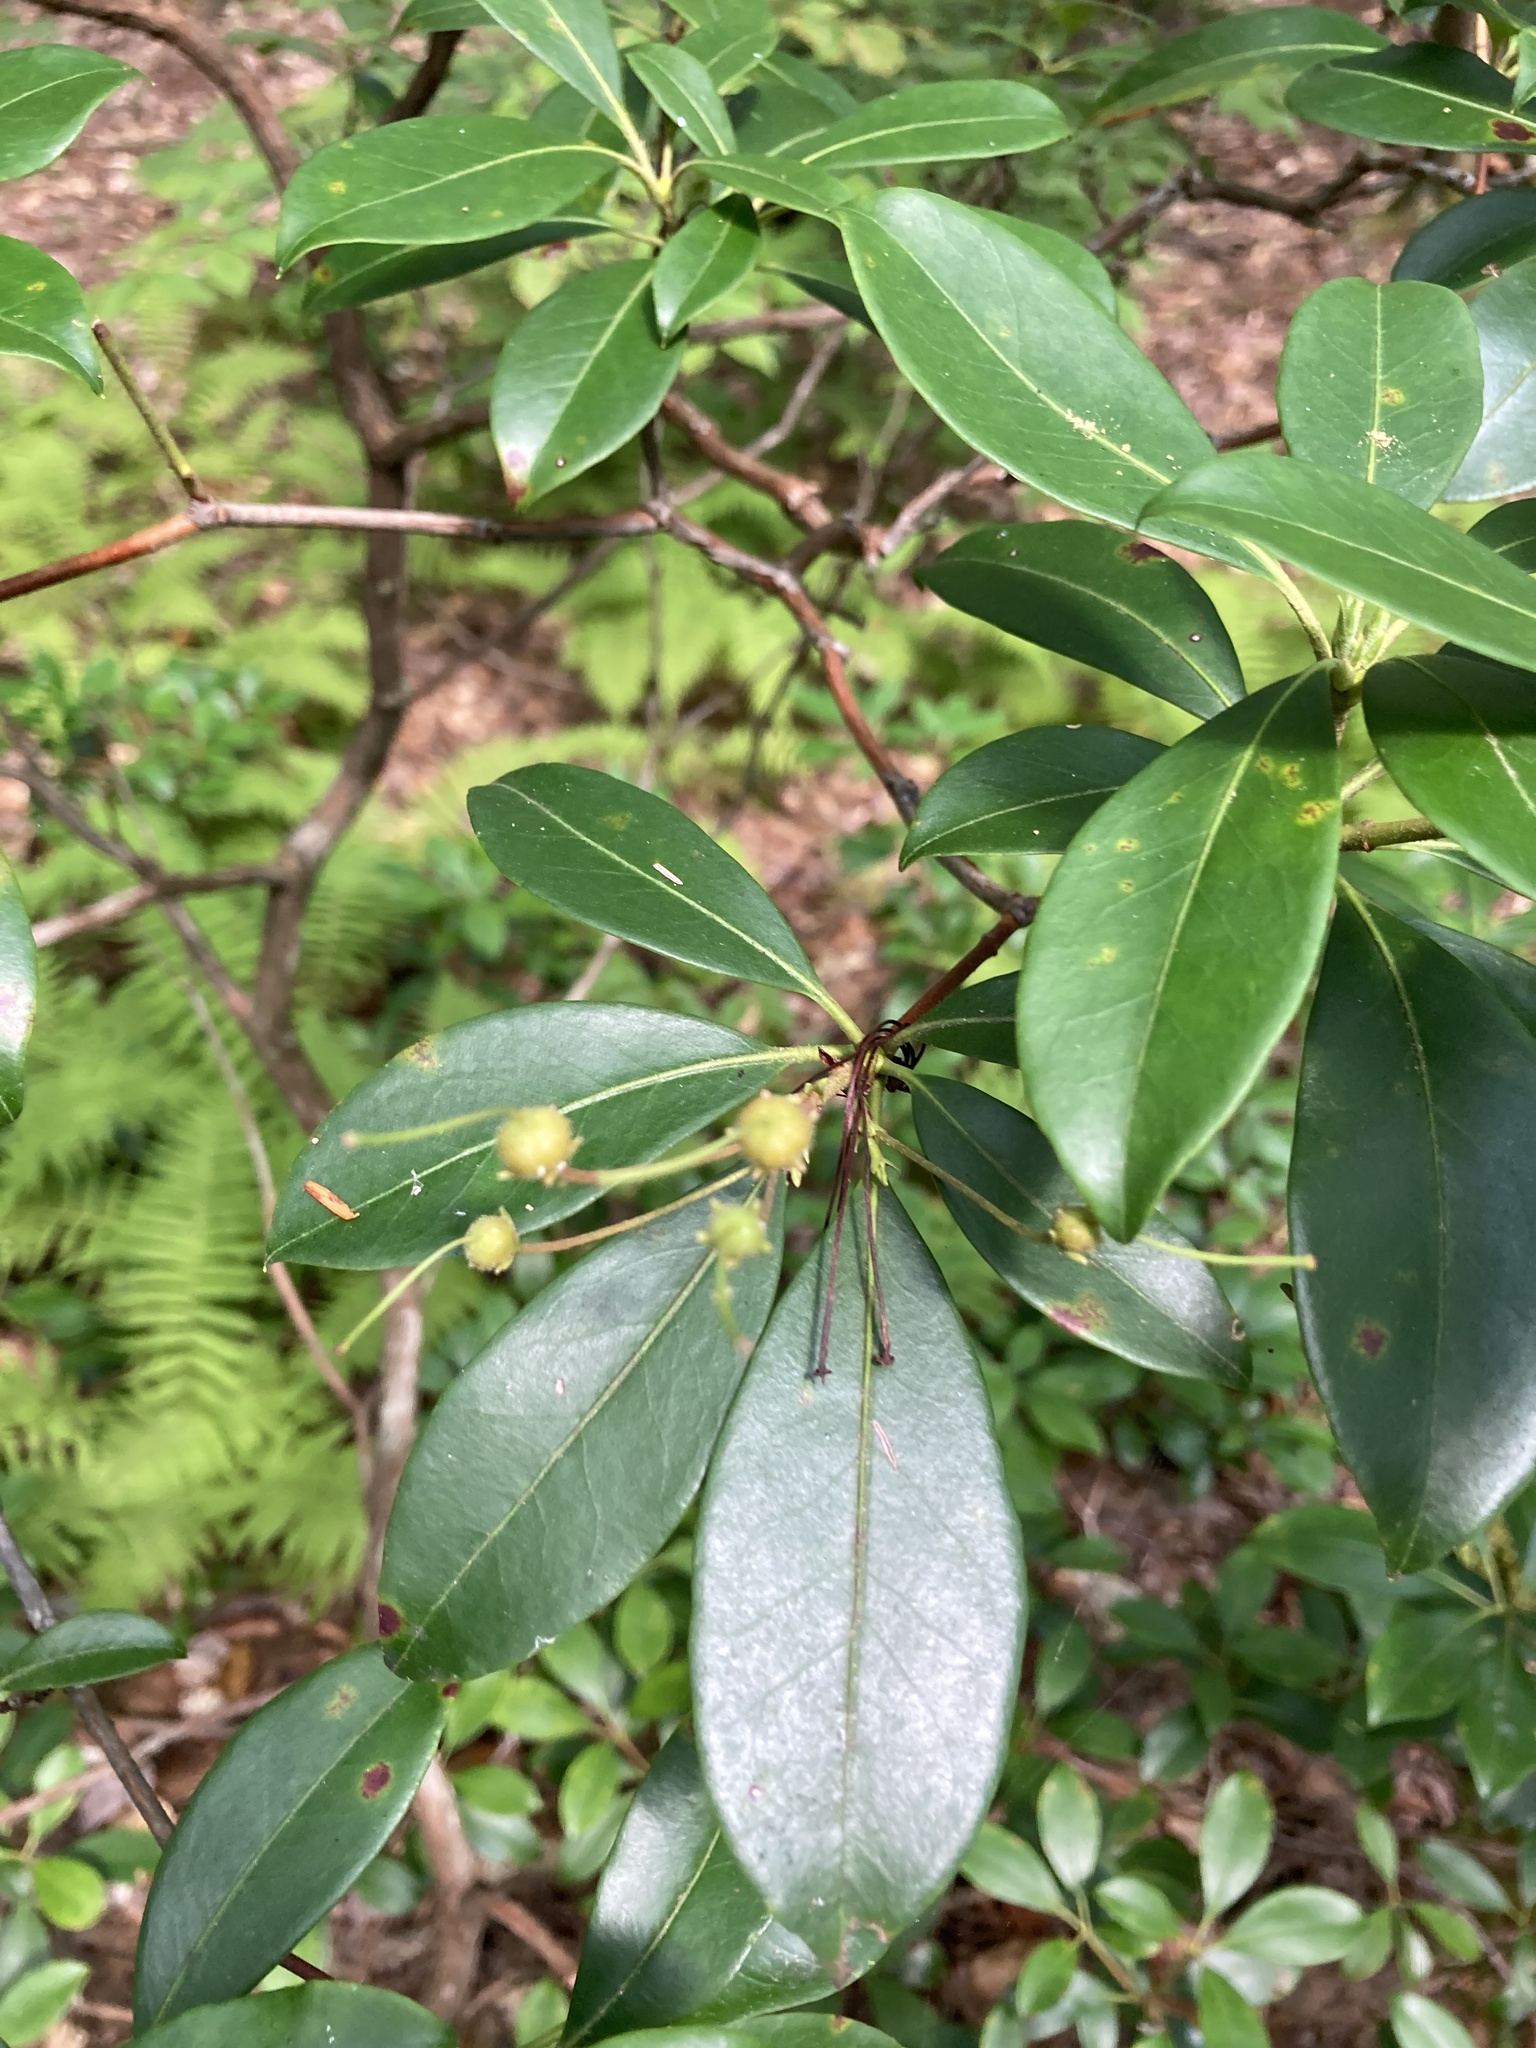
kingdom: Plantae
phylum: Tracheophyta
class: Magnoliopsida
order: Ericales
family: Ericaceae
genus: Kalmia
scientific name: Kalmia latifolia
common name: Mountain-laurel
